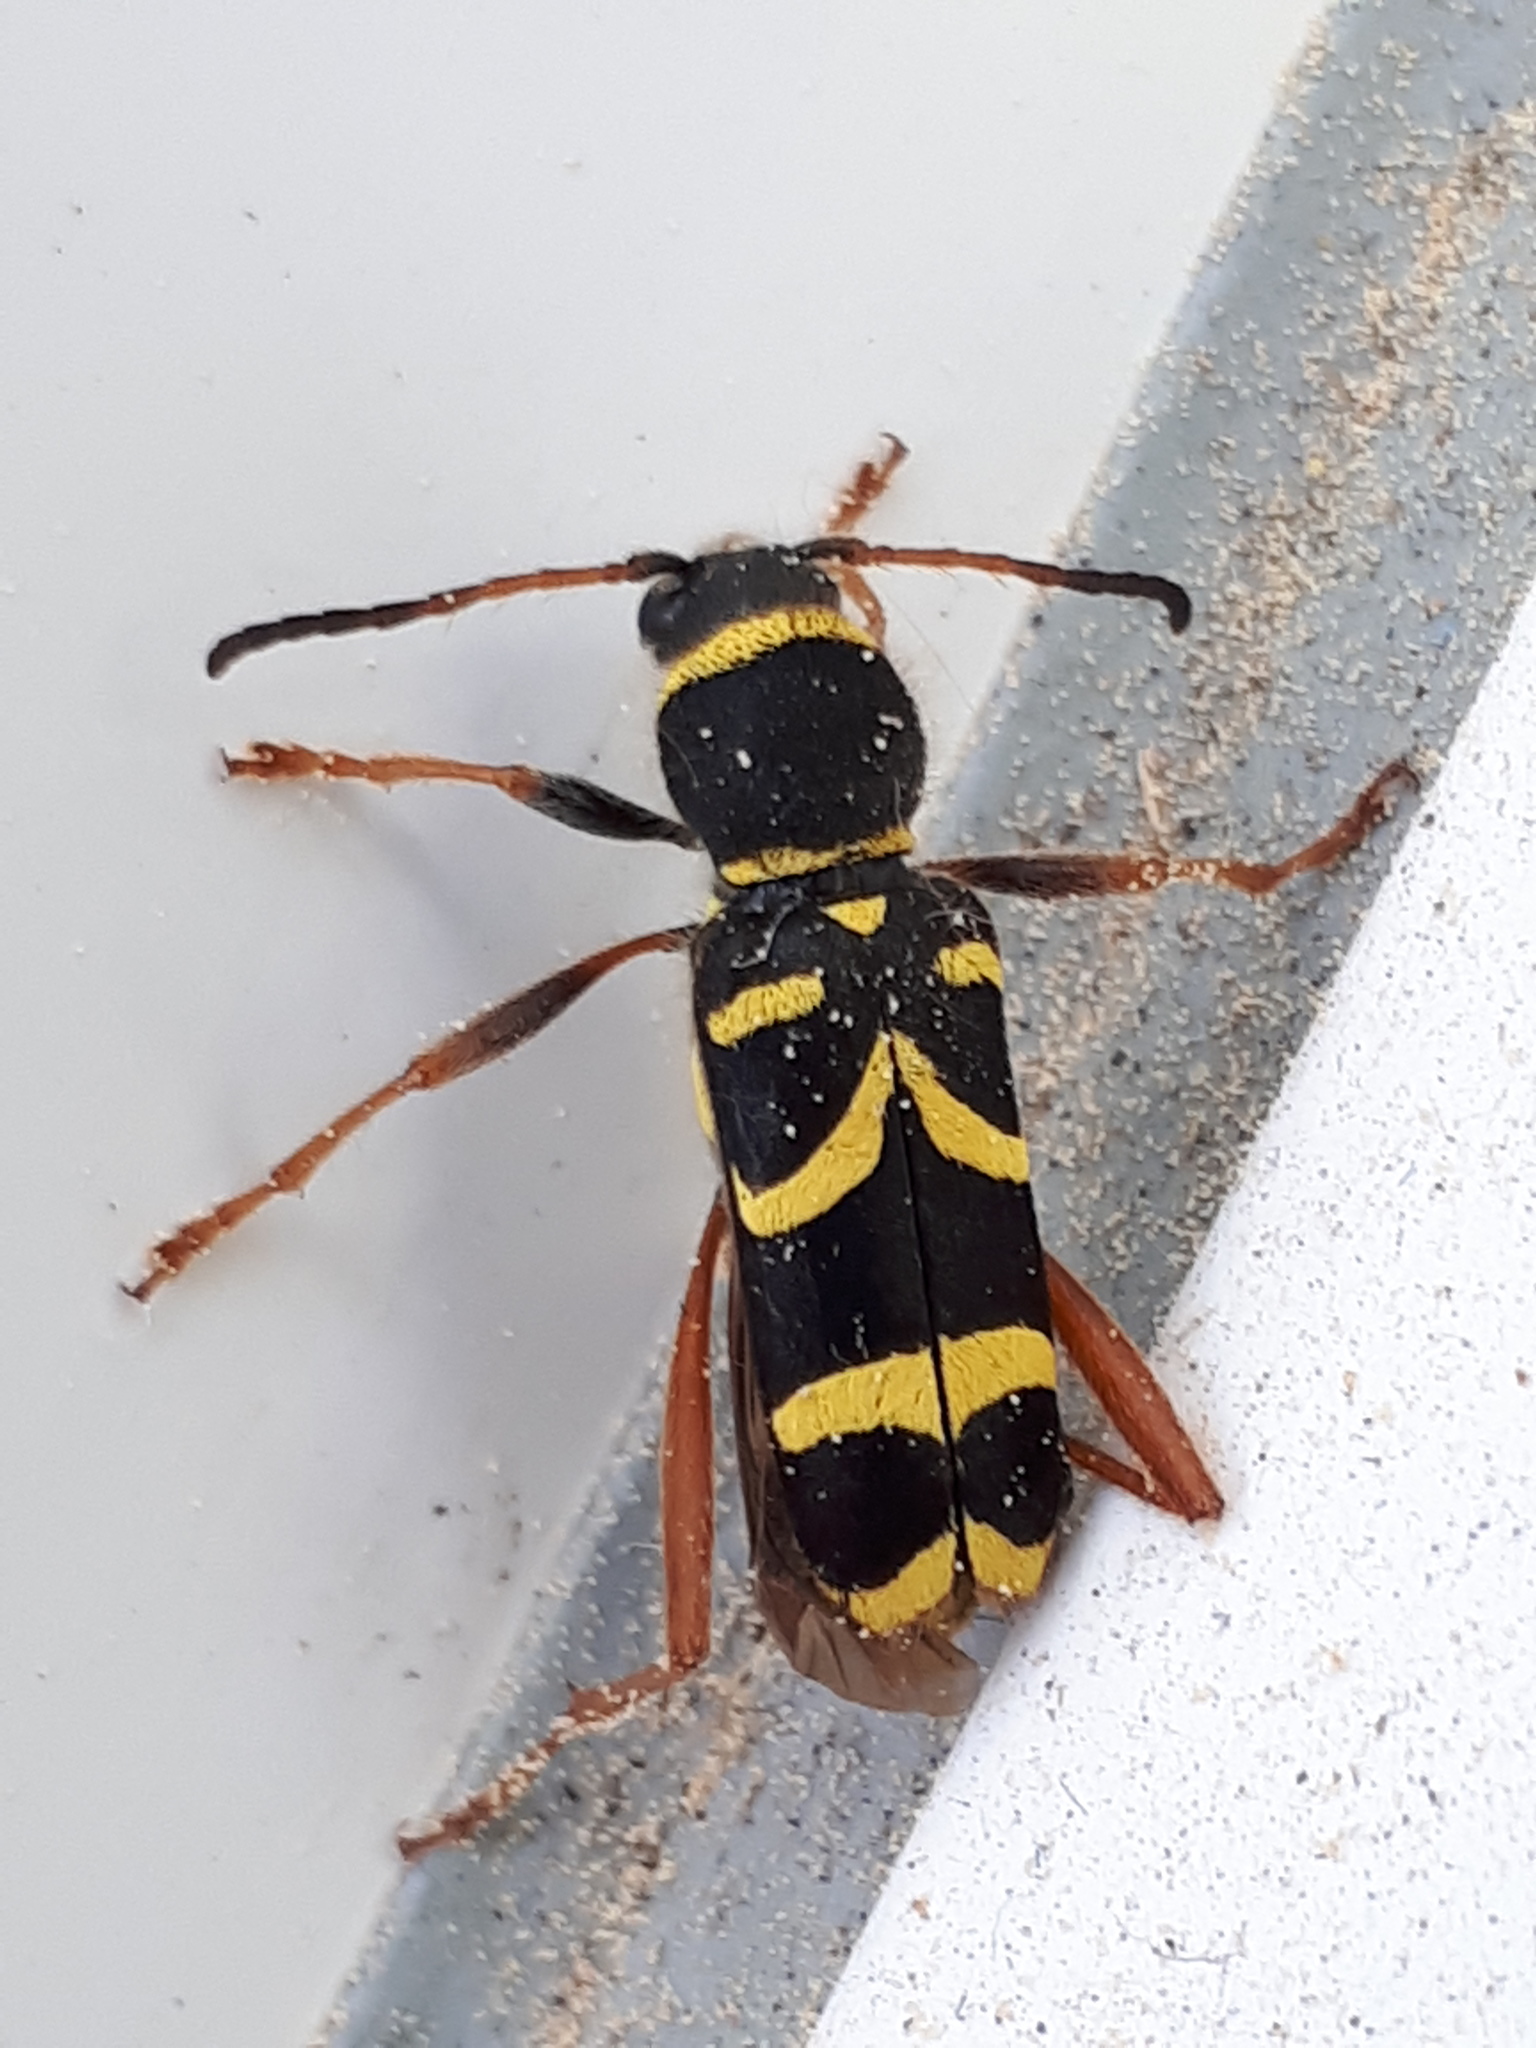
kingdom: Animalia
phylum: Arthropoda
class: Insecta
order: Coleoptera
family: Cerambycidae
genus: Clytus
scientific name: Clytus arietis
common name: Wasp beetle
